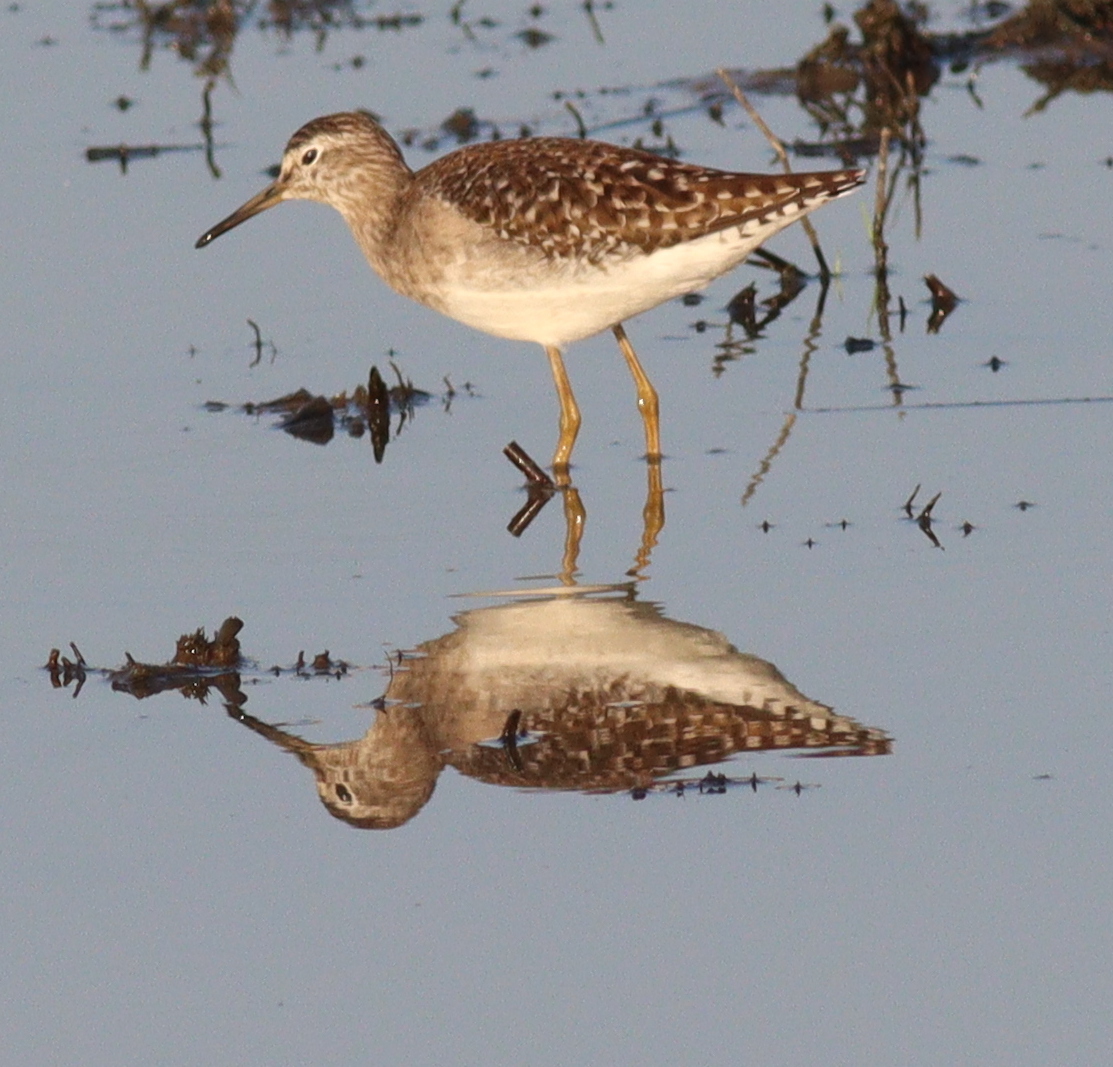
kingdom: Animalia
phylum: Chordata
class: Aves
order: Charadriiformes
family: Scolopacidae
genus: Tringa
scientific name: Tringa glareola
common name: Wood sandpiper
